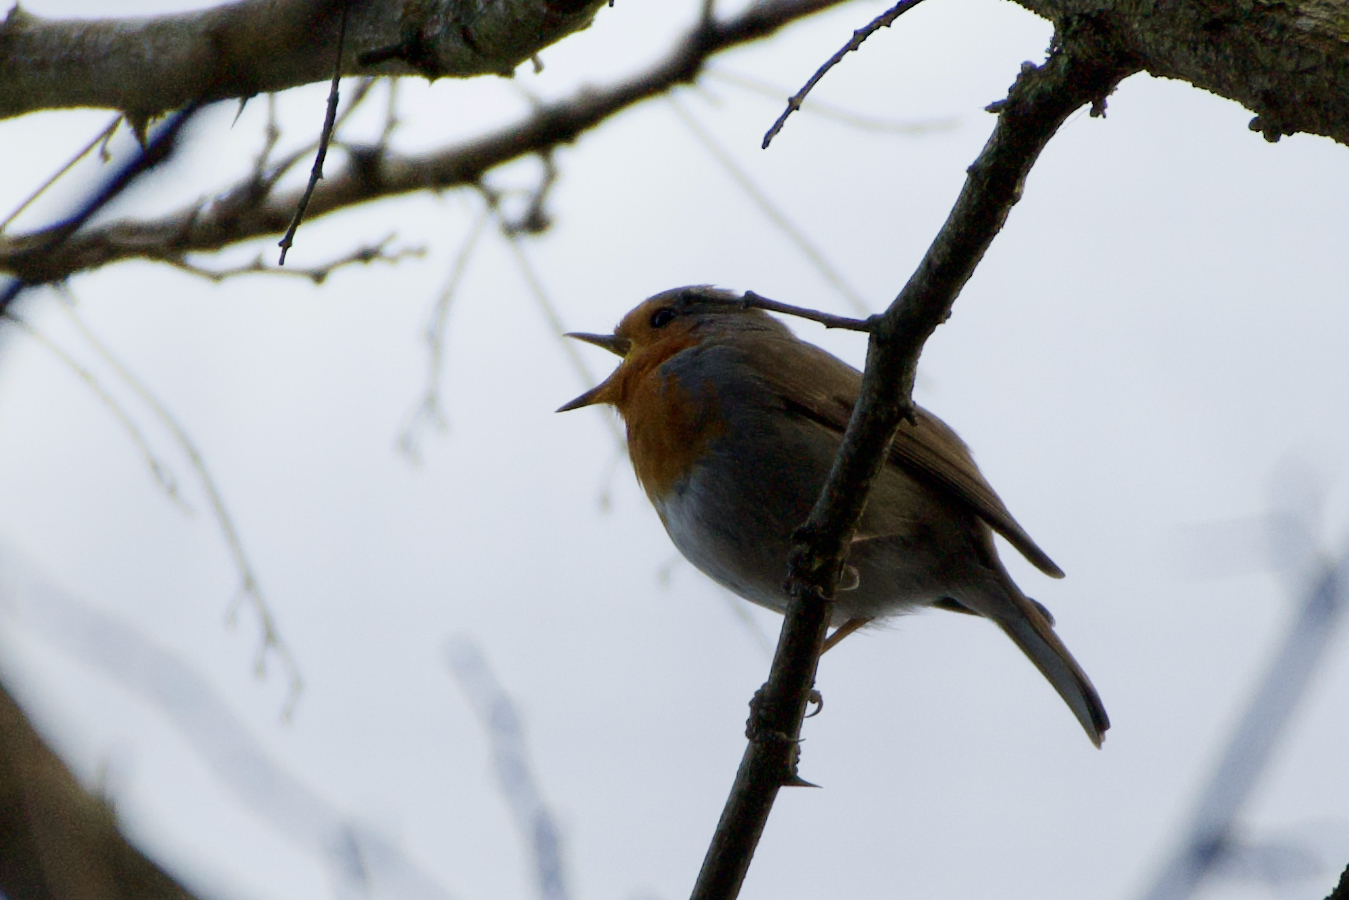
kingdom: Animalia
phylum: Chordata
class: Aves
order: Passeriformes
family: Muscicapidae
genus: Erithacus
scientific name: Erithacus rubecula
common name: European robin
